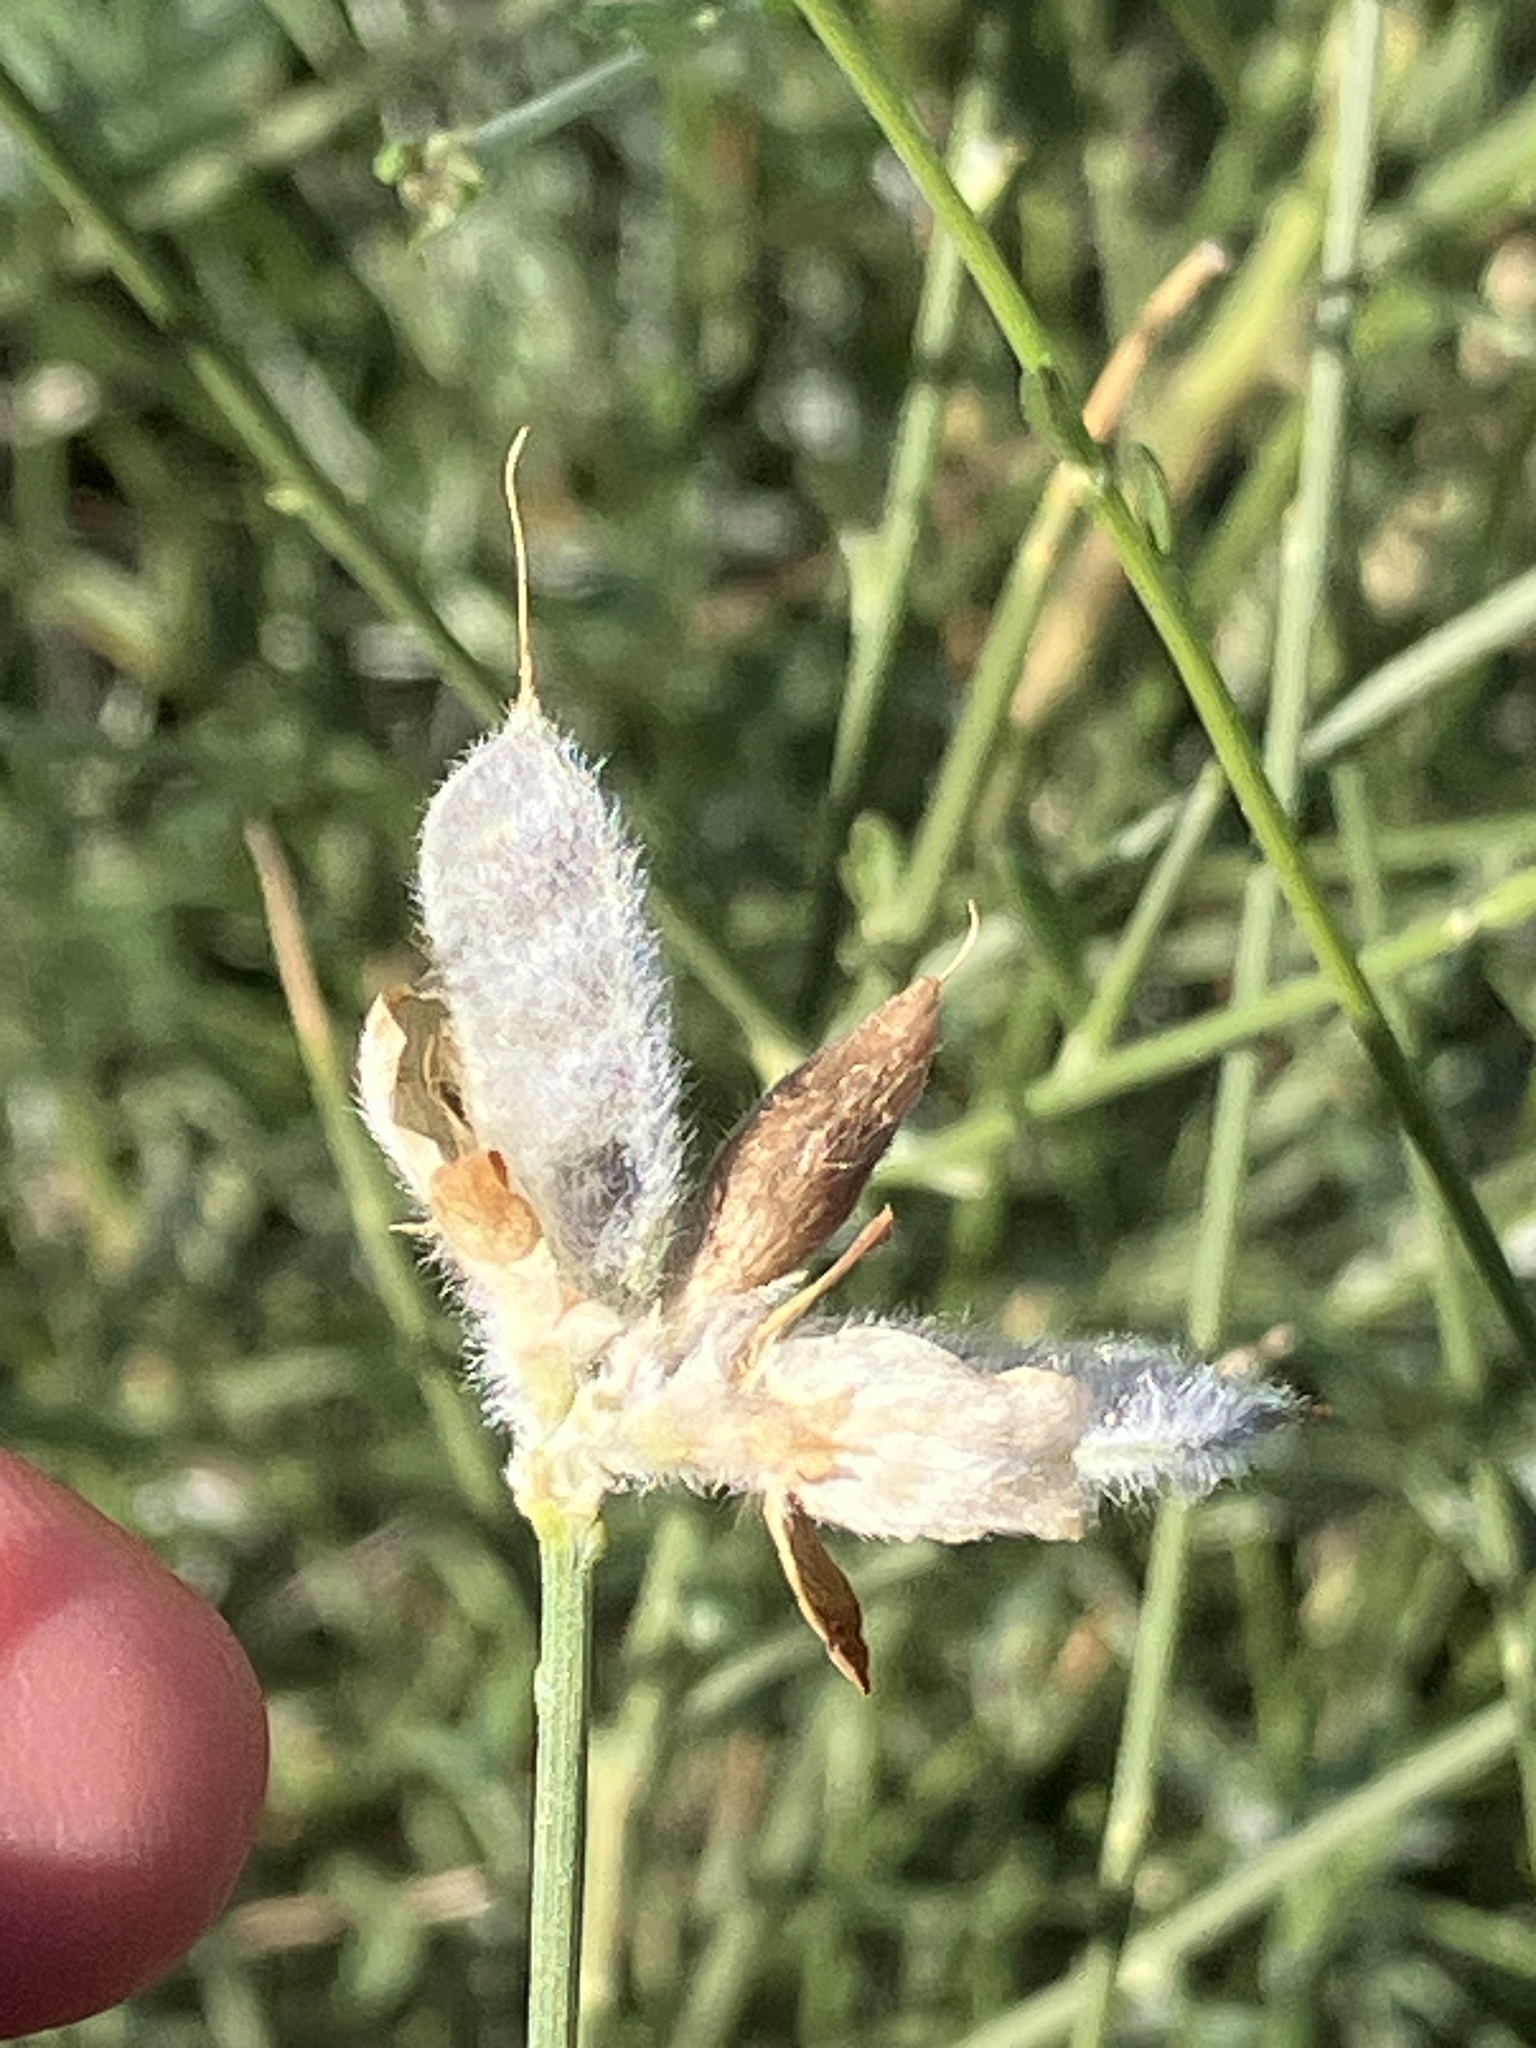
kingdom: Plantae
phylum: Tracheophyta
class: Magnoliopsida
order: Fabales
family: Fabaceae
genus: Genista
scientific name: Genista umbellata
